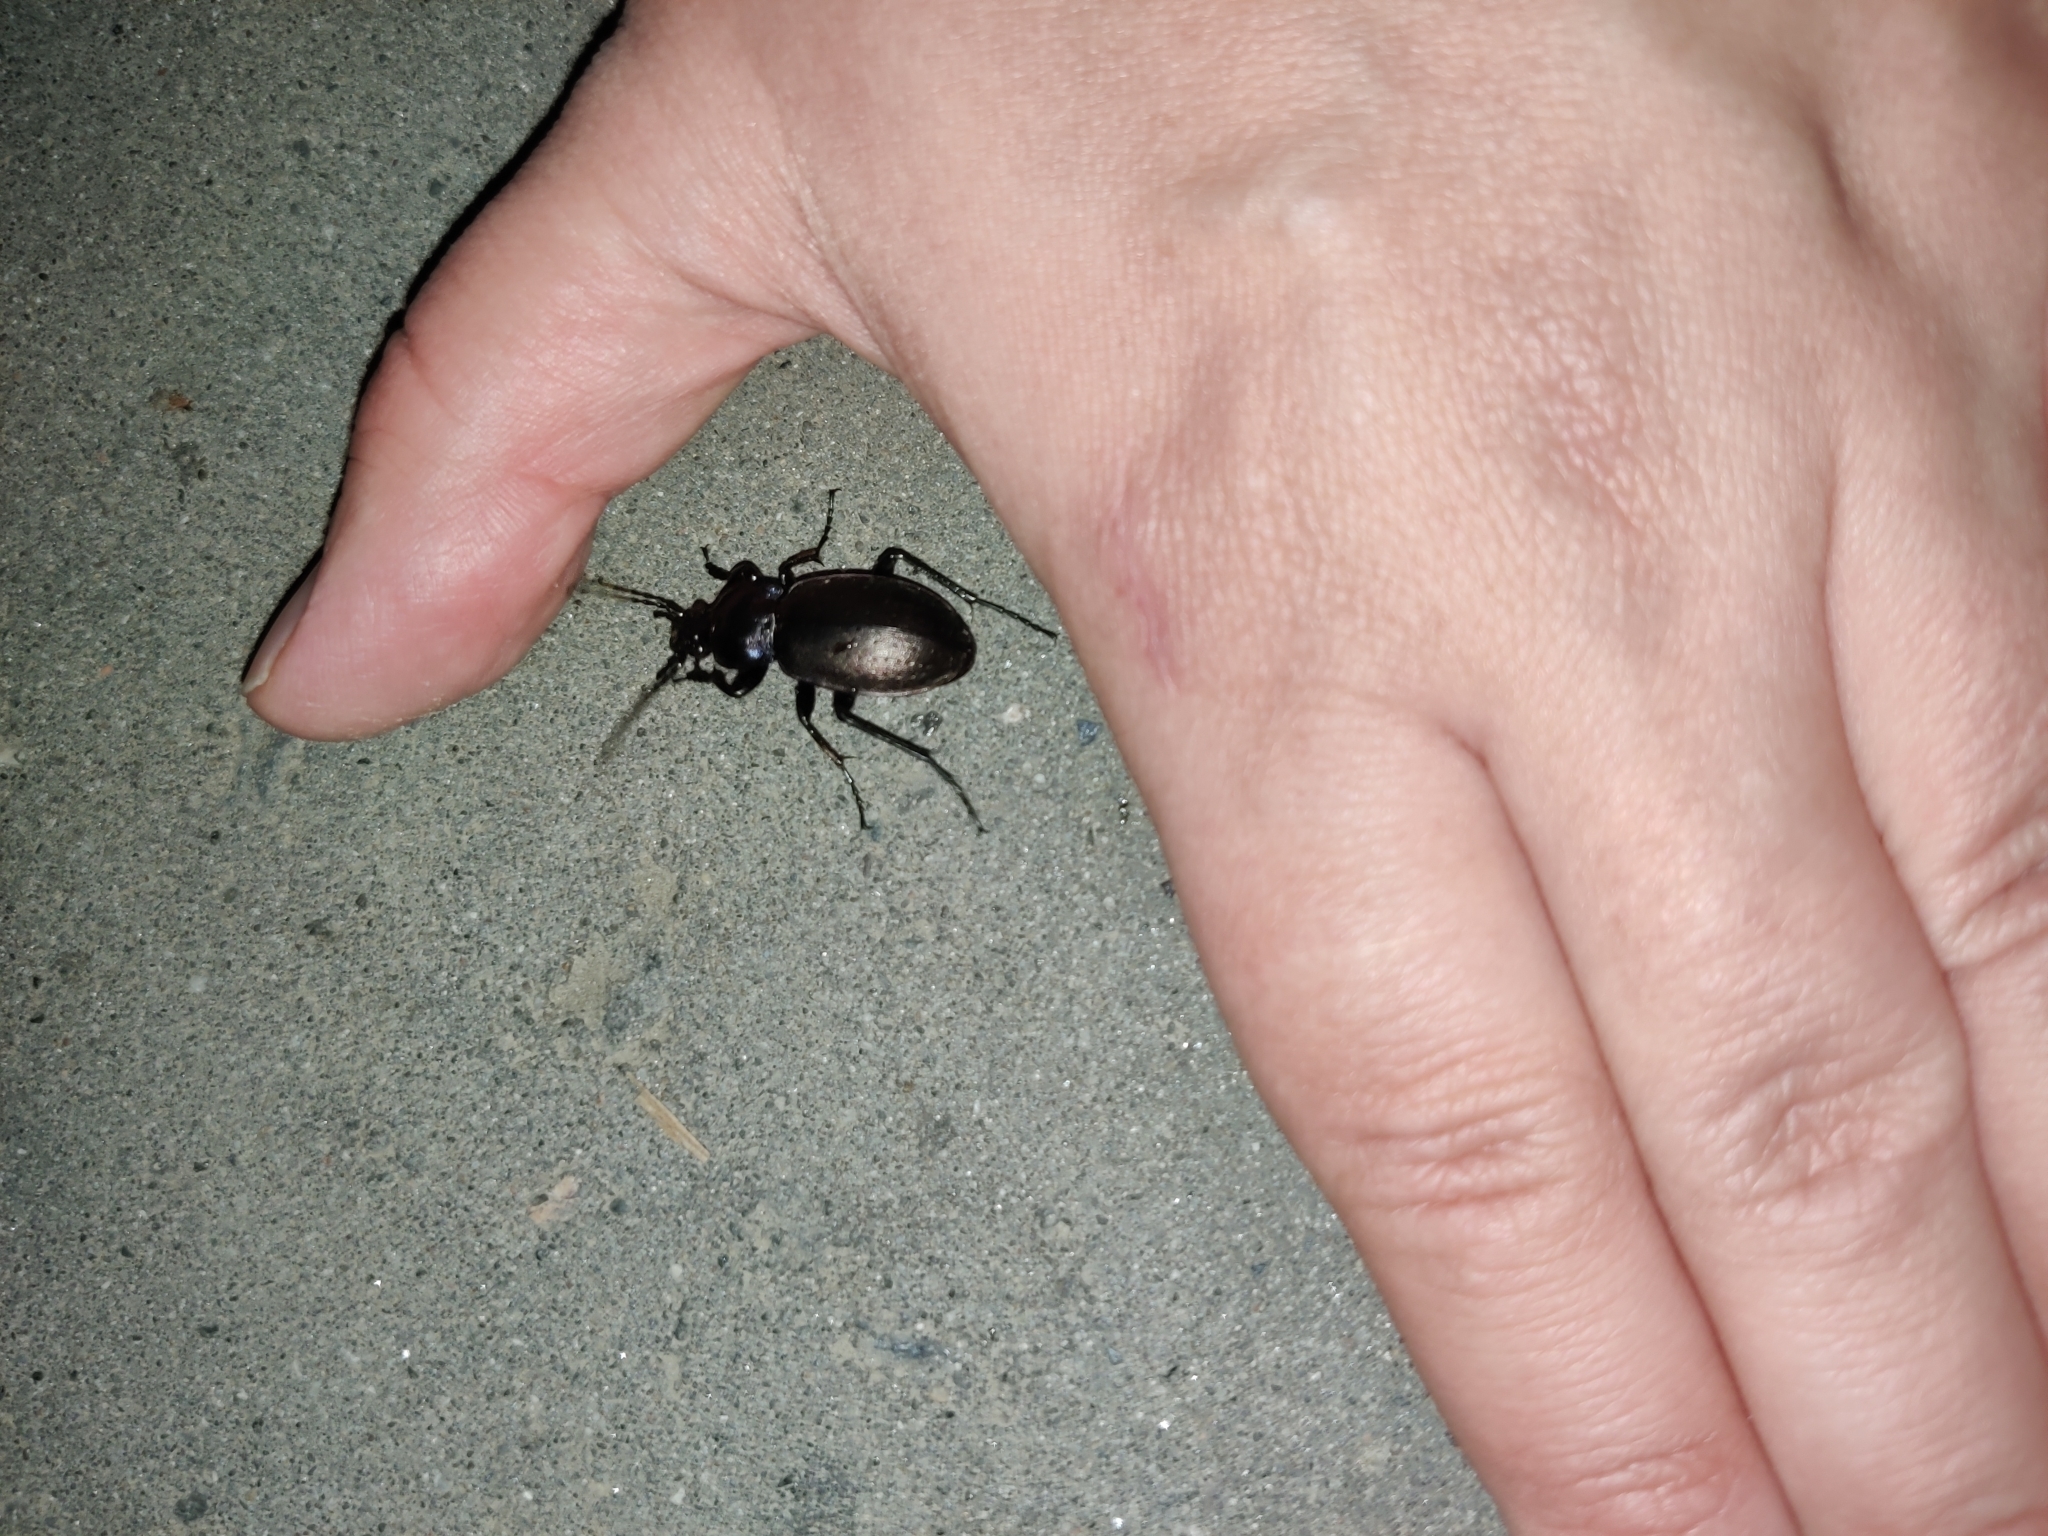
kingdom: Animalia
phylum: Arthropoda
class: Insecta
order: Coleoptera
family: Carabidae
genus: Carabus
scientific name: Carabus nemoralis
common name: European ground beetle
